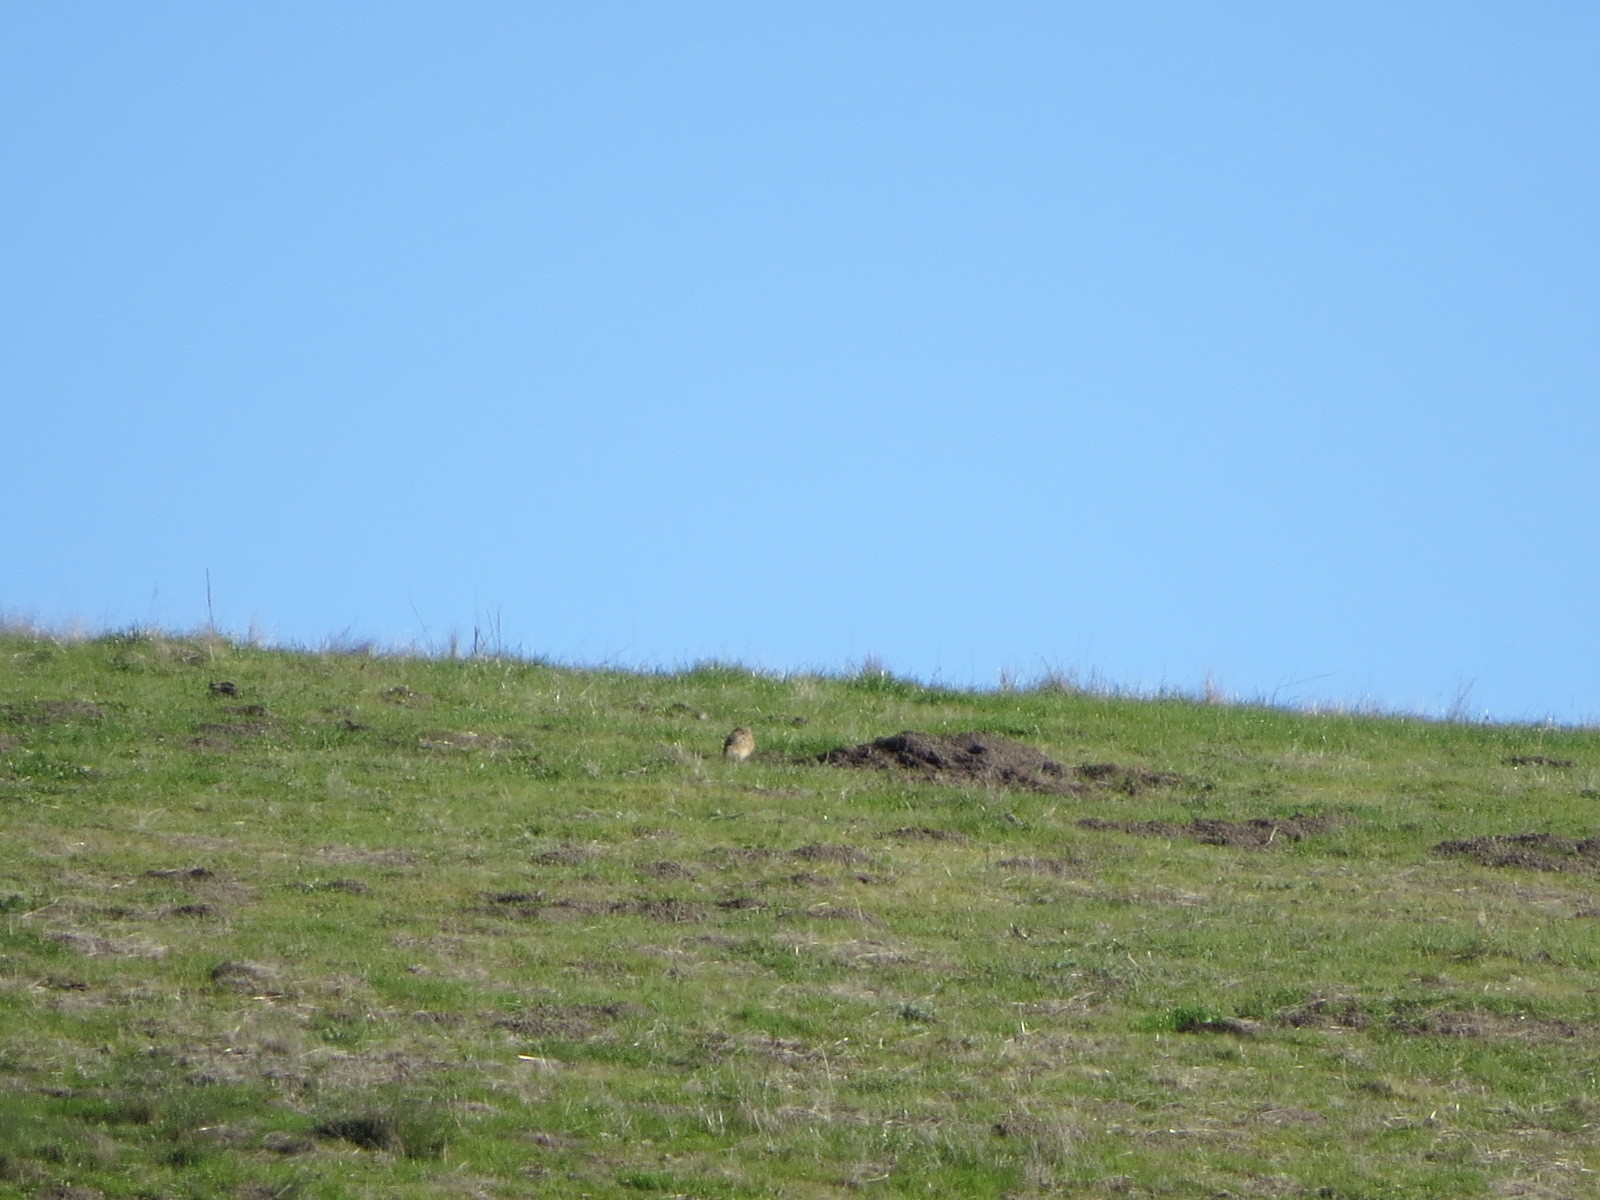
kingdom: Animalia
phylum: Chordata
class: Aves
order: Strigiformes
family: Strigidae
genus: Athene
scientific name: Athene cunicularia
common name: Burrowing owl
